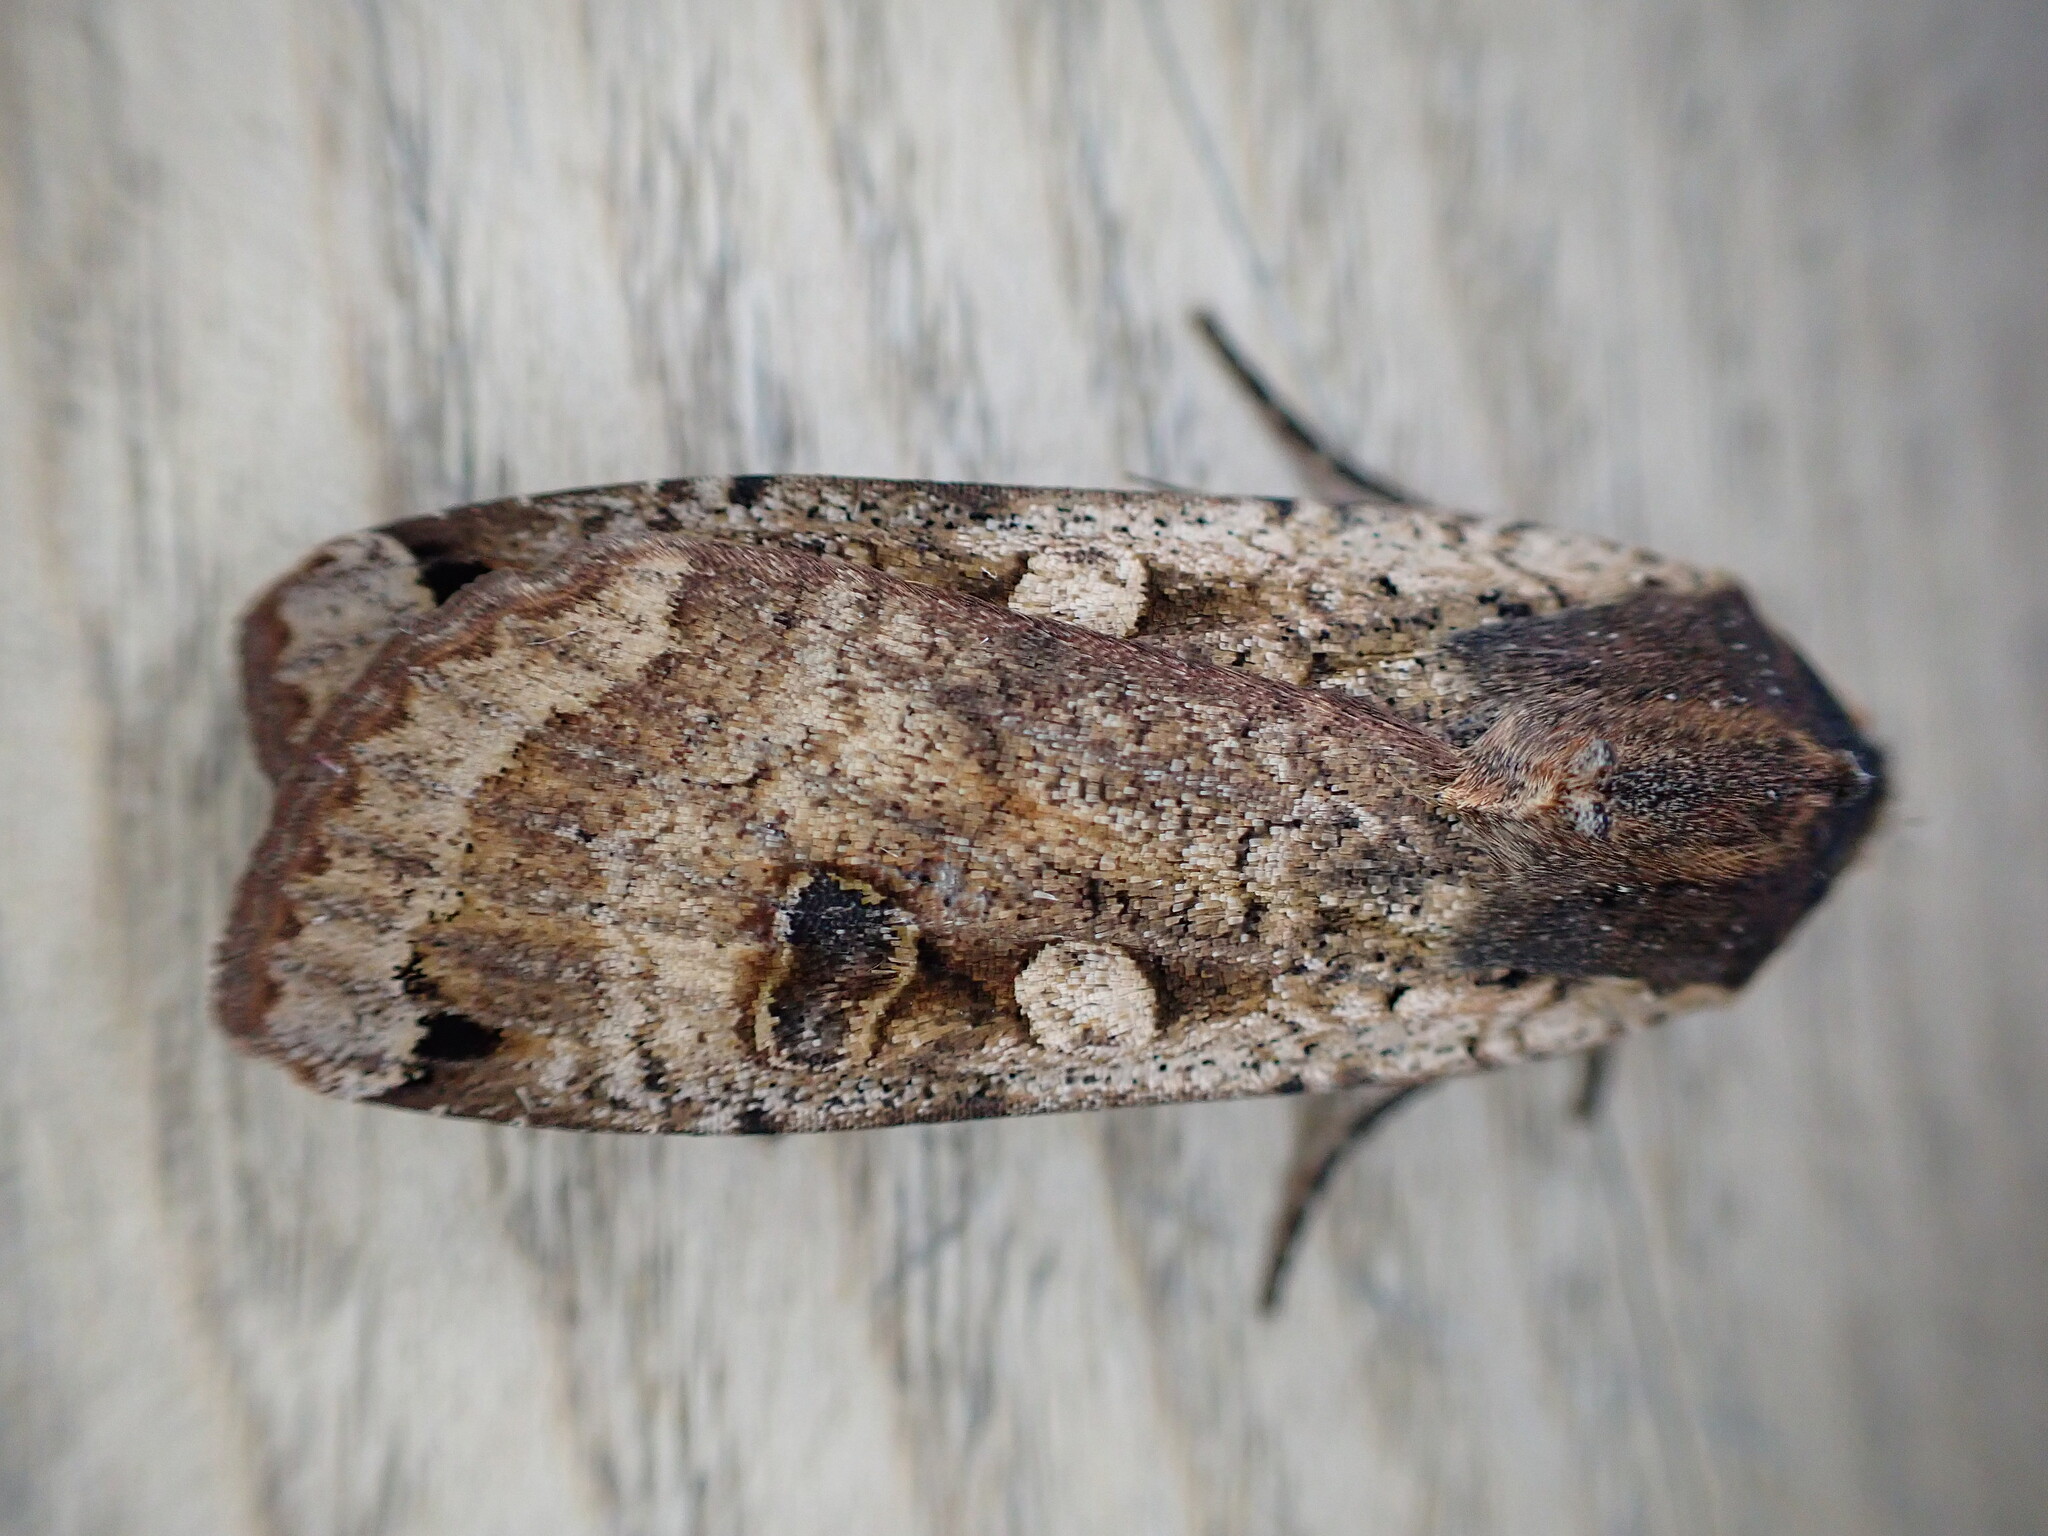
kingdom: Animalia
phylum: Arthropoda
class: Insecta
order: Lepidoptera
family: Noctuidae
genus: Noctua
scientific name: Noctua pronuba
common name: Large yellow underwing
